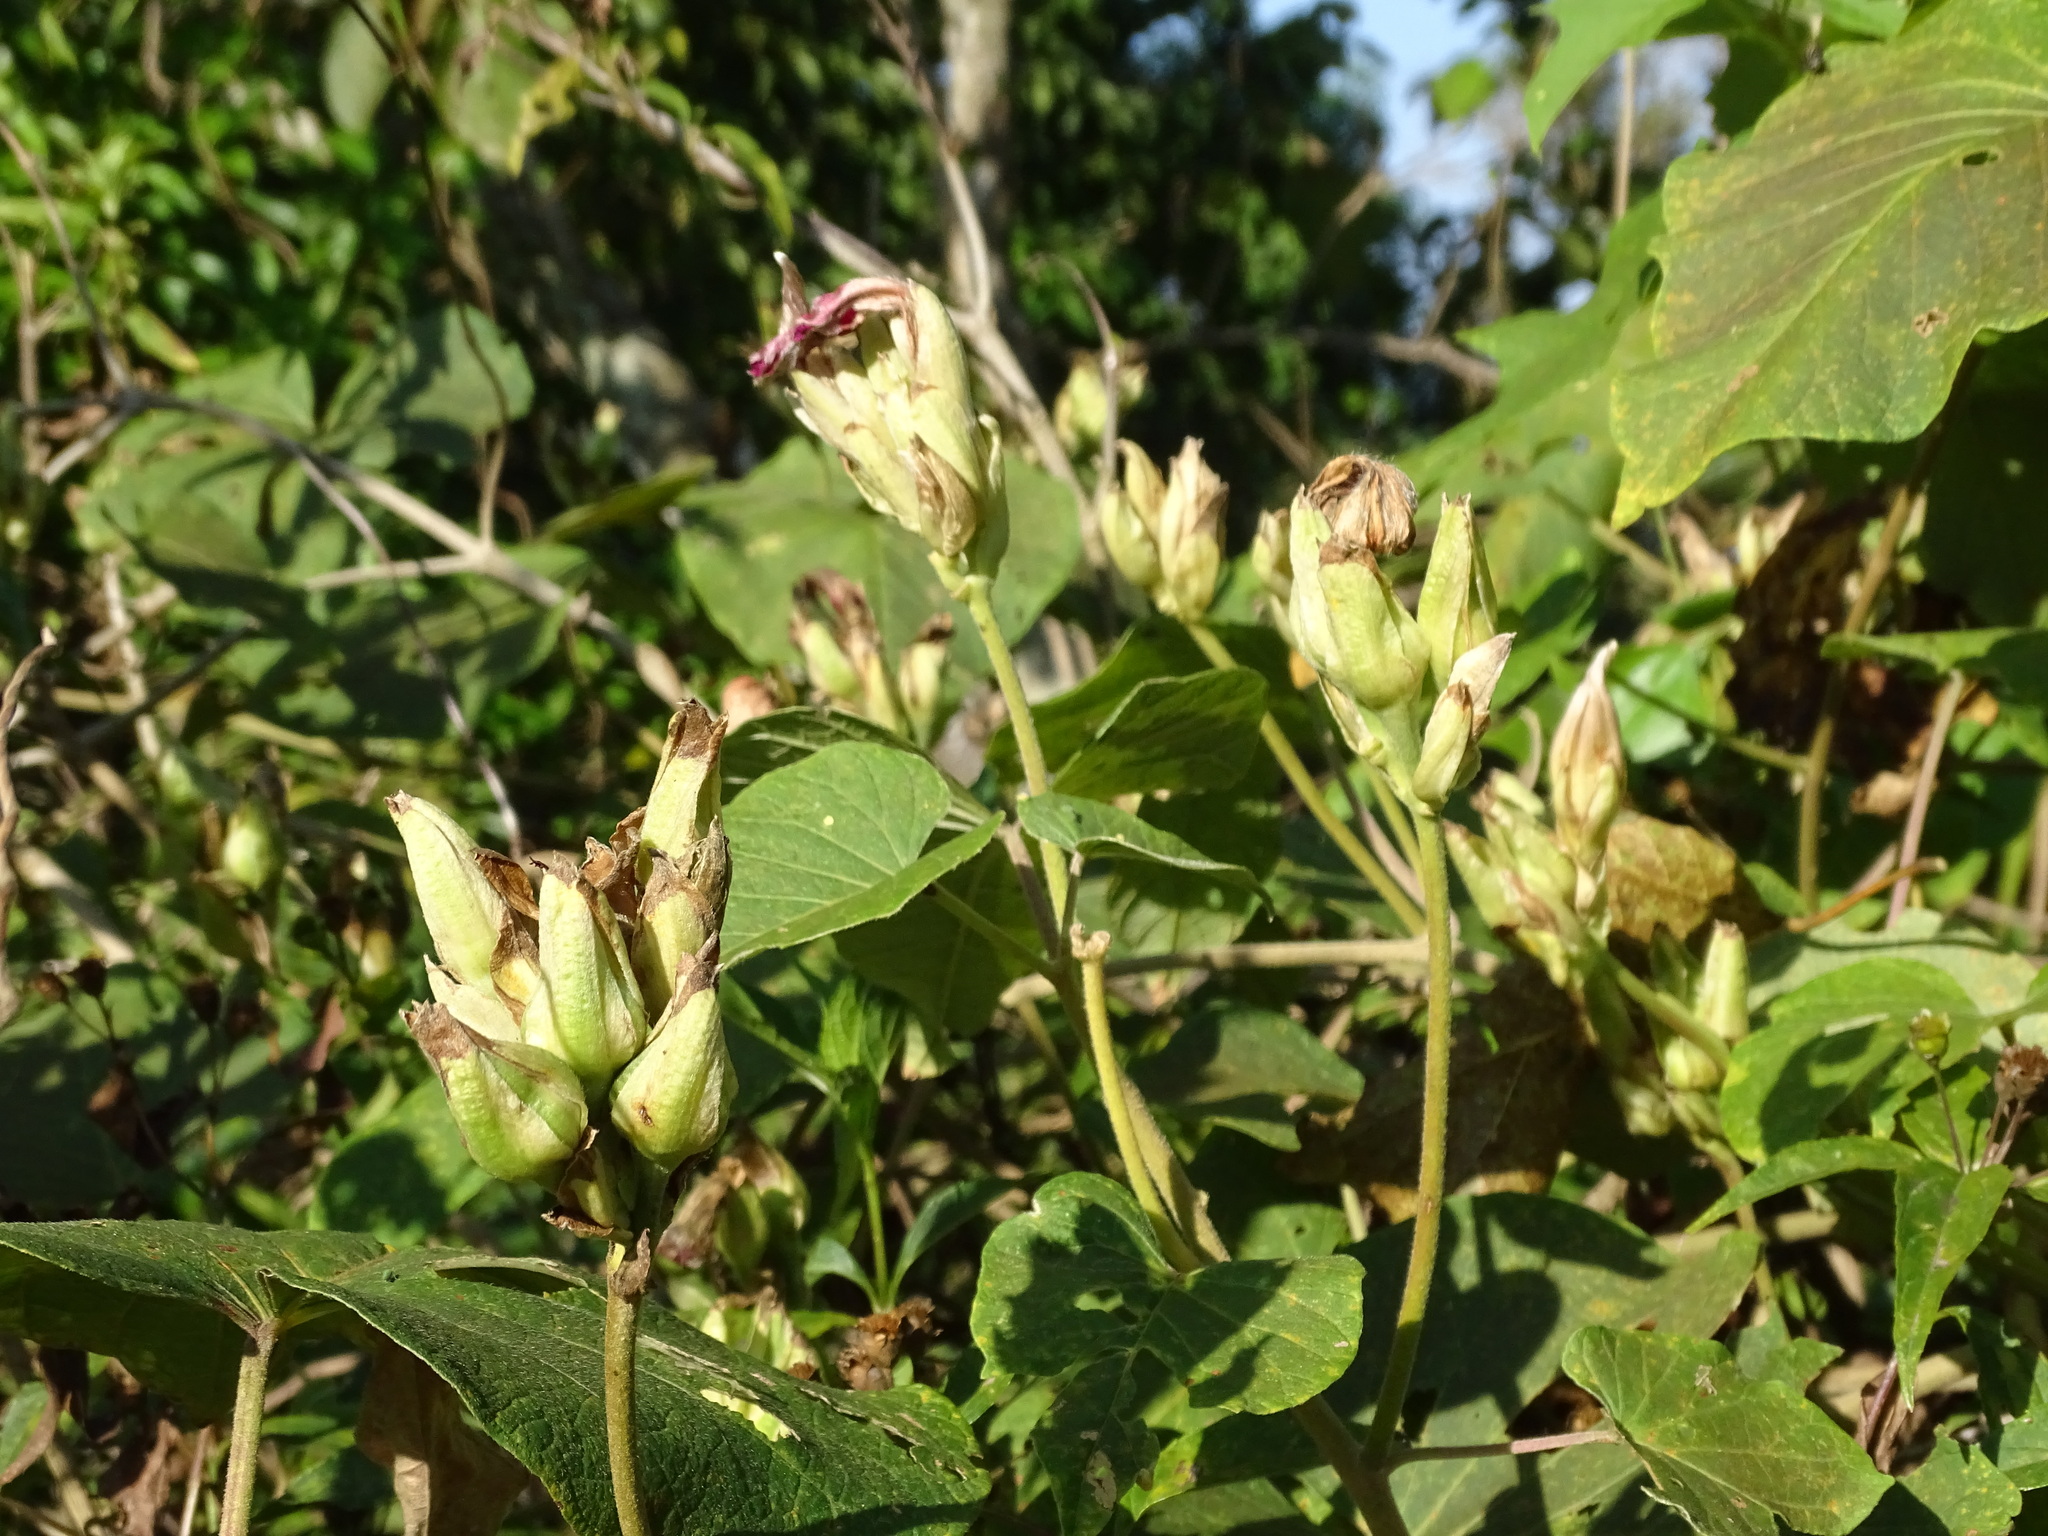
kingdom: Plantae
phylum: Tracheophyta
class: Magnoliopsida
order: Solanales
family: Convolvulaceae
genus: Ipomoea
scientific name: Ipomoea mairetii
